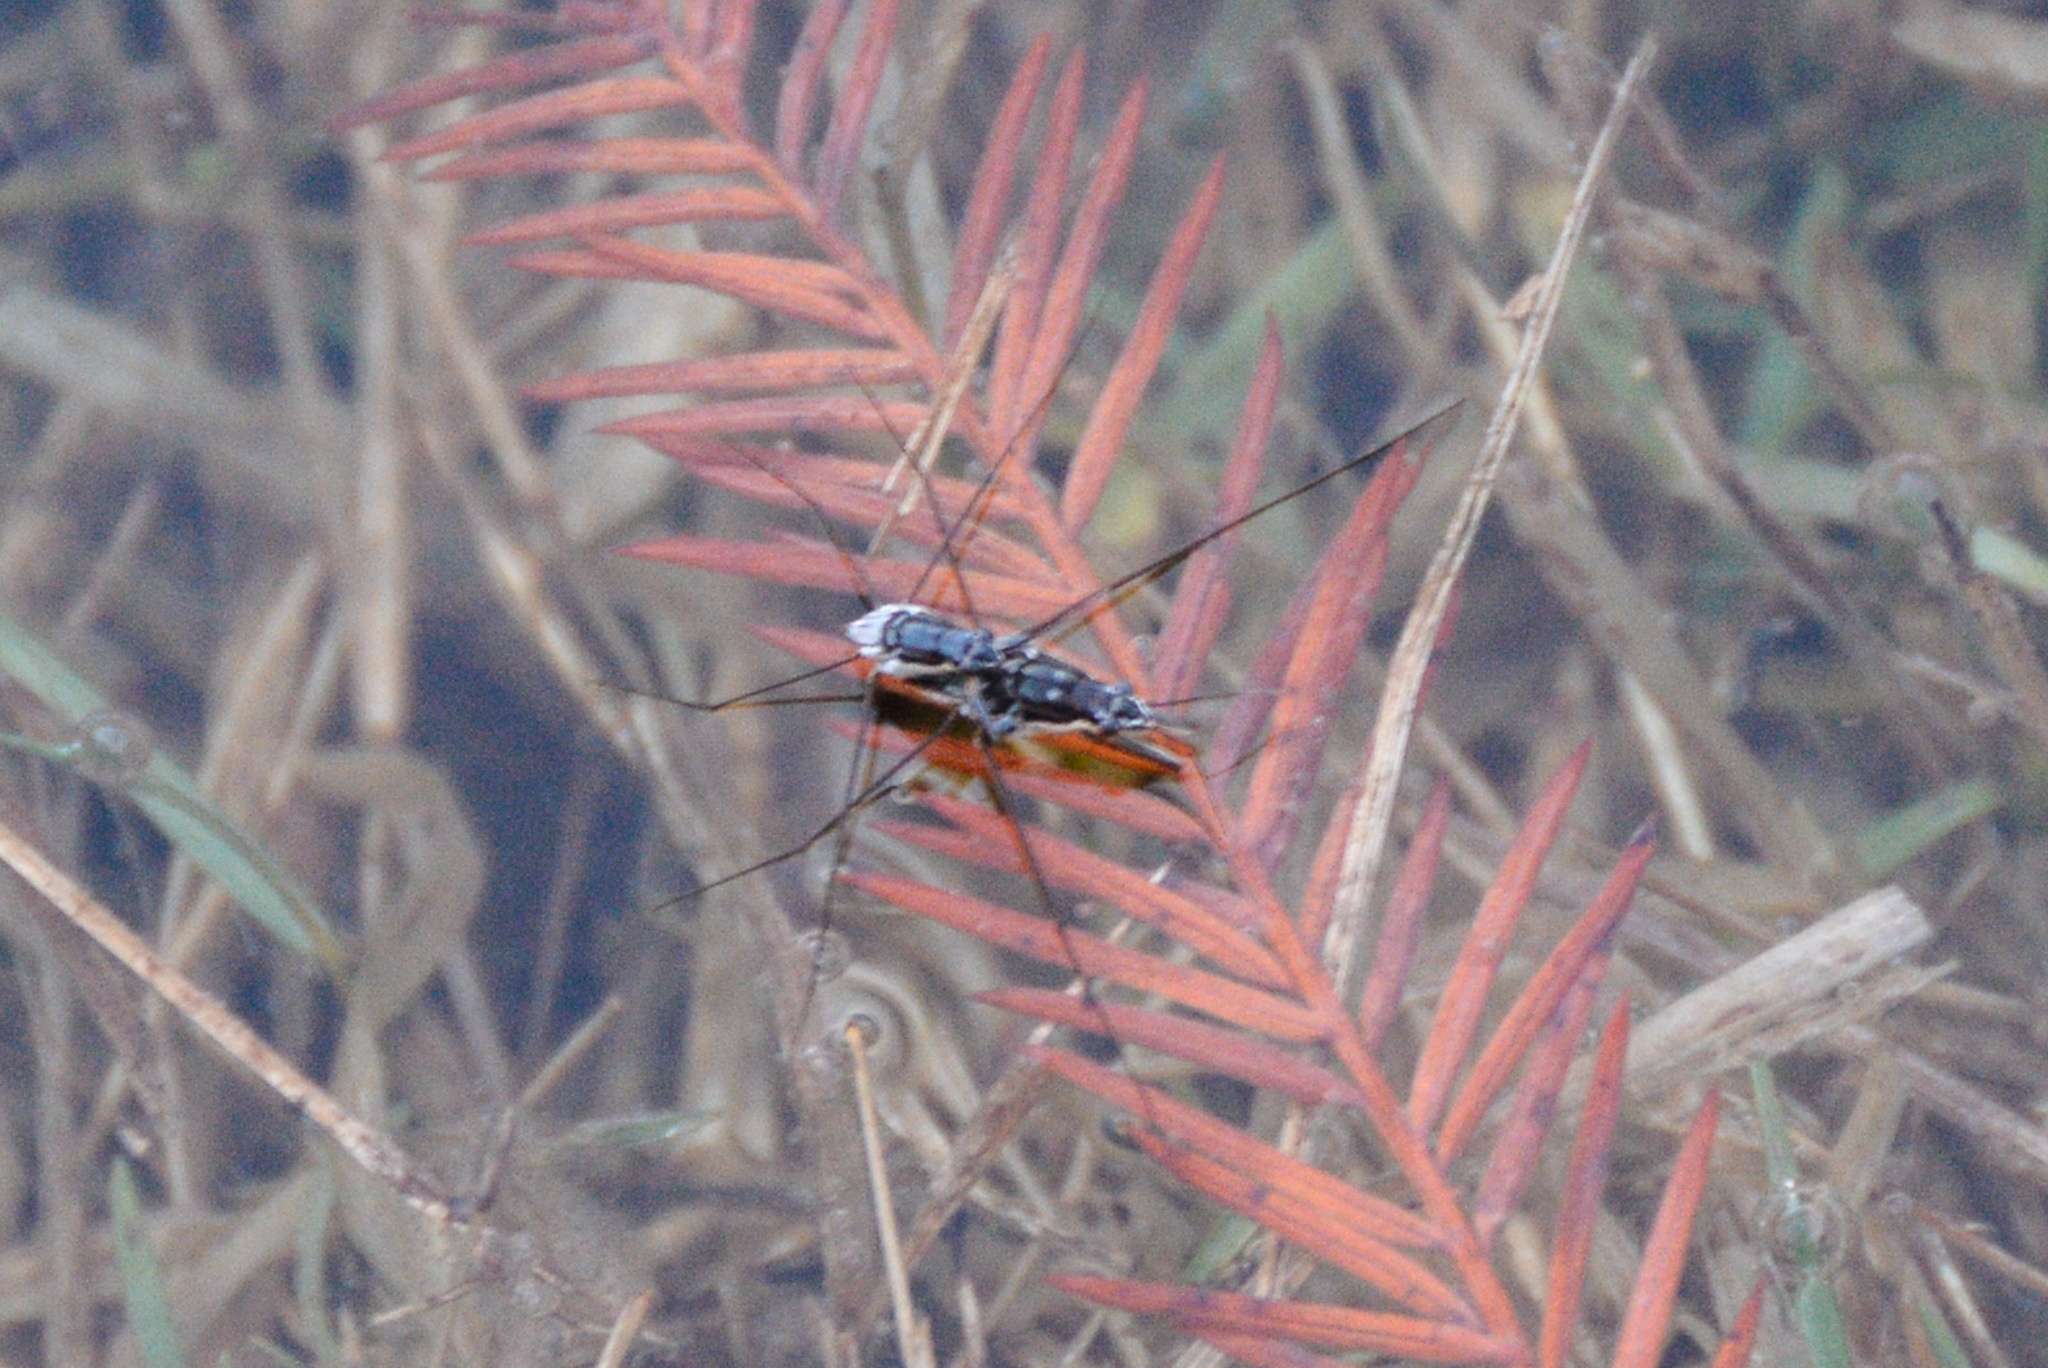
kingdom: Animalia
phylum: Arthropoda
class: Insecta
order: Hemiptera
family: Gerridae
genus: Neogerris
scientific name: Neogerris hesione
